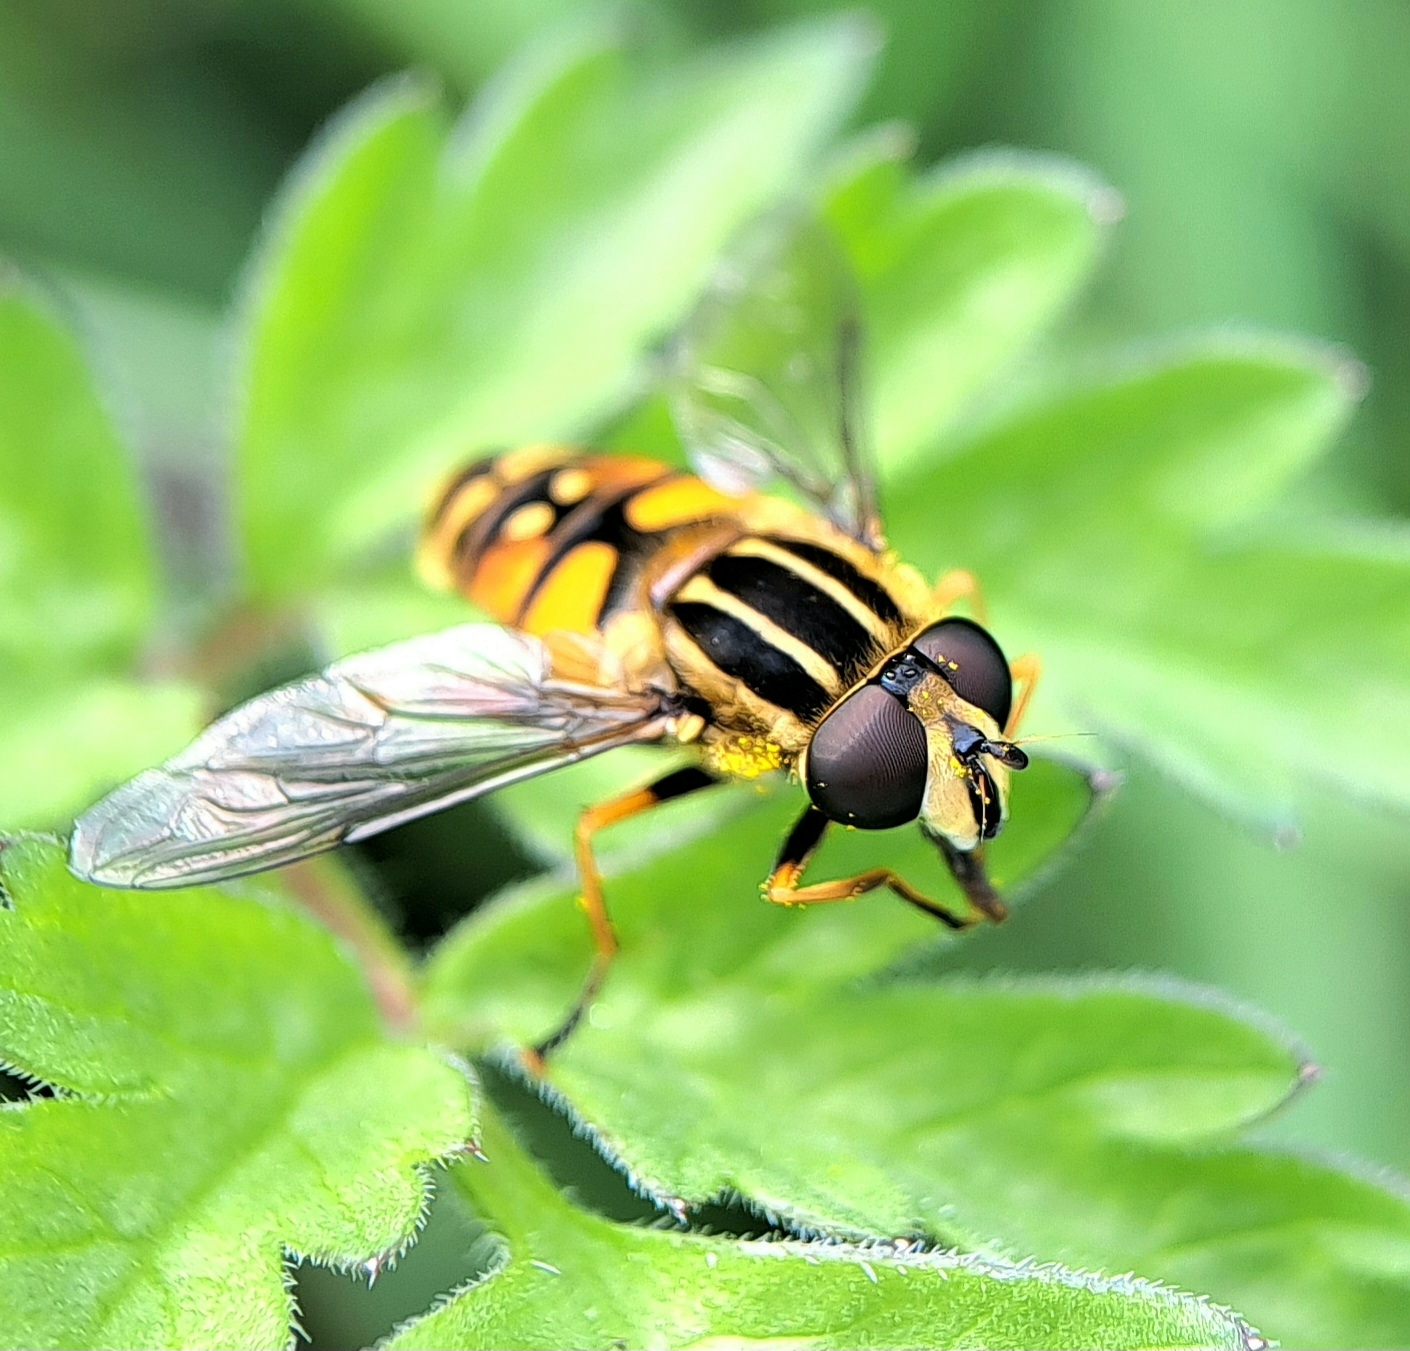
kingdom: Animalia
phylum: Arthropoda
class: Insecta
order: Diptera
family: Syrphidae
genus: Helophilus
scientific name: Helophilus pendulus
